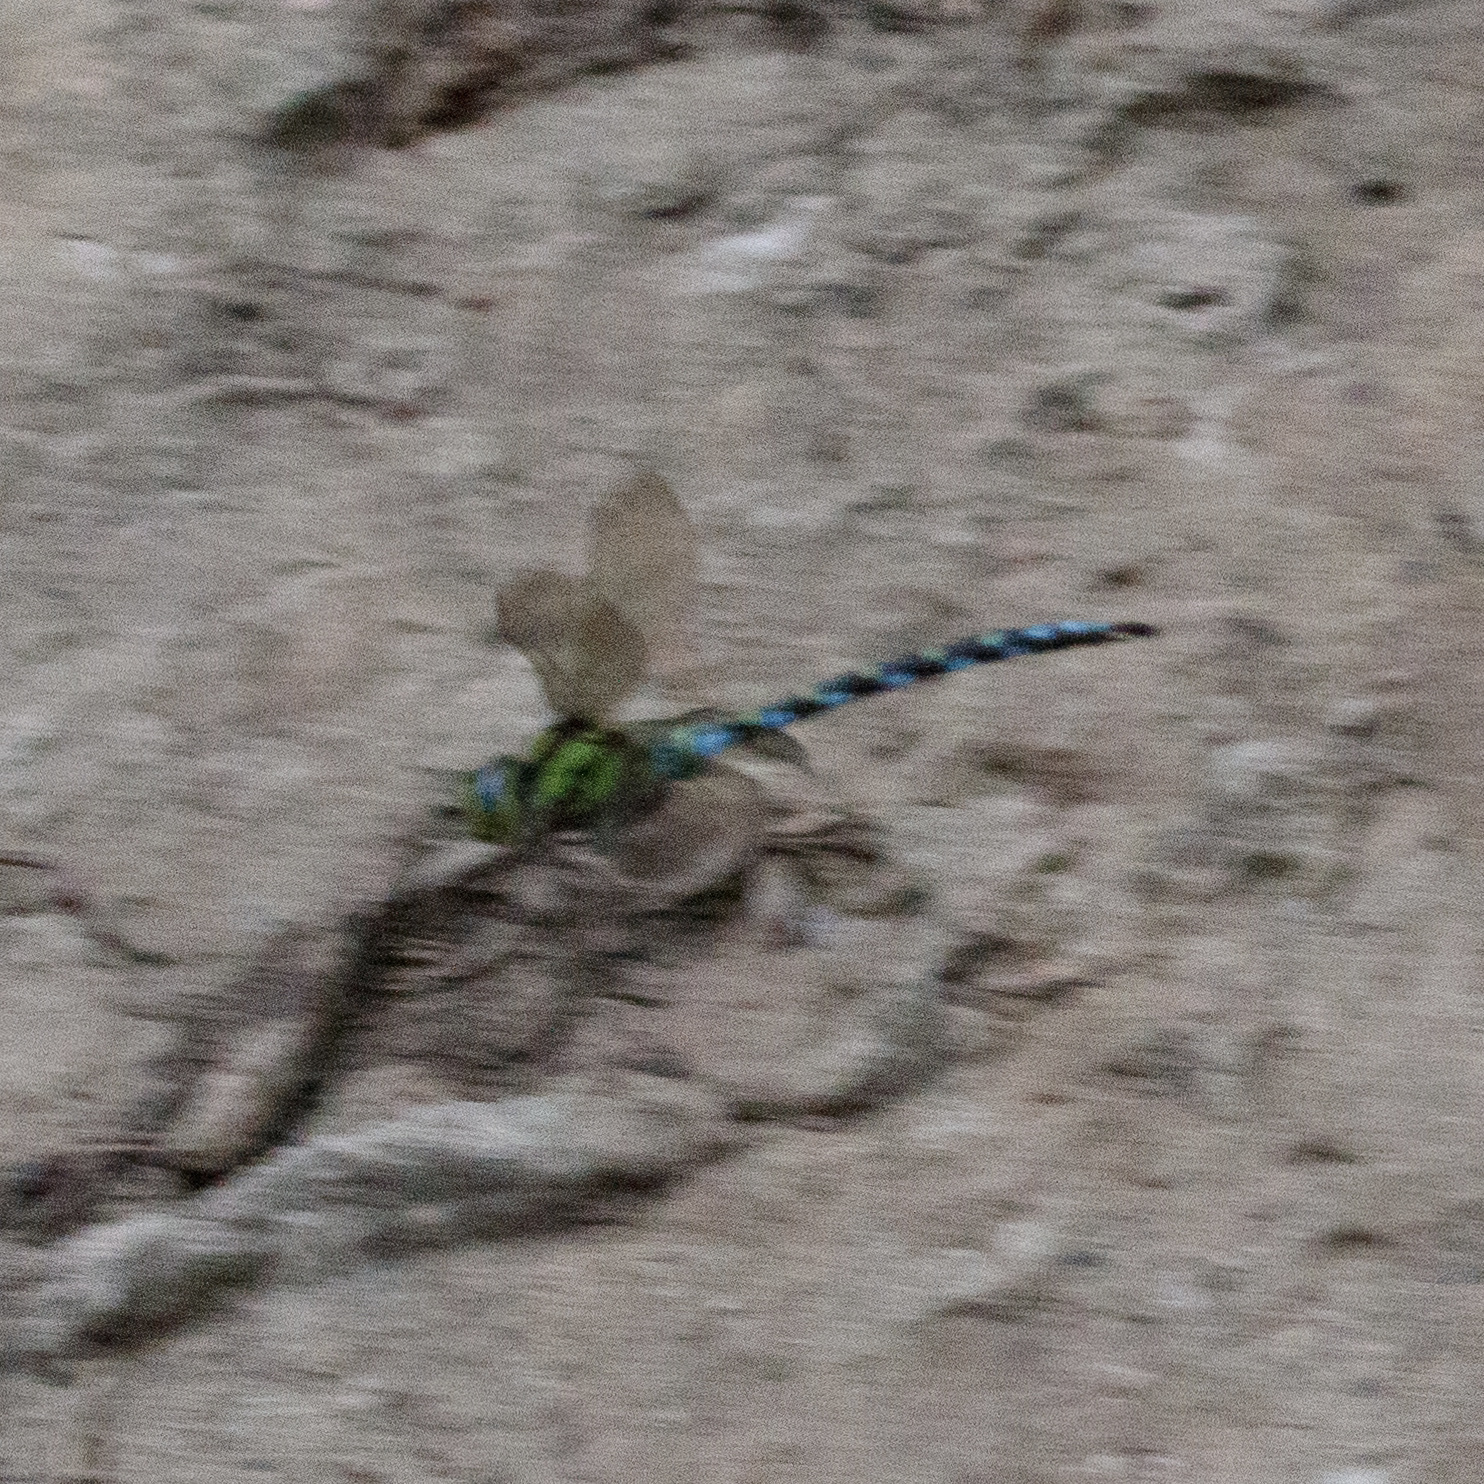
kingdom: Animalia
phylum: Arthropoda
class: Insecta
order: Odonata
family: Aeshnidae
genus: Aeshna
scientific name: Aeshna cyanea
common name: Southern hawker
